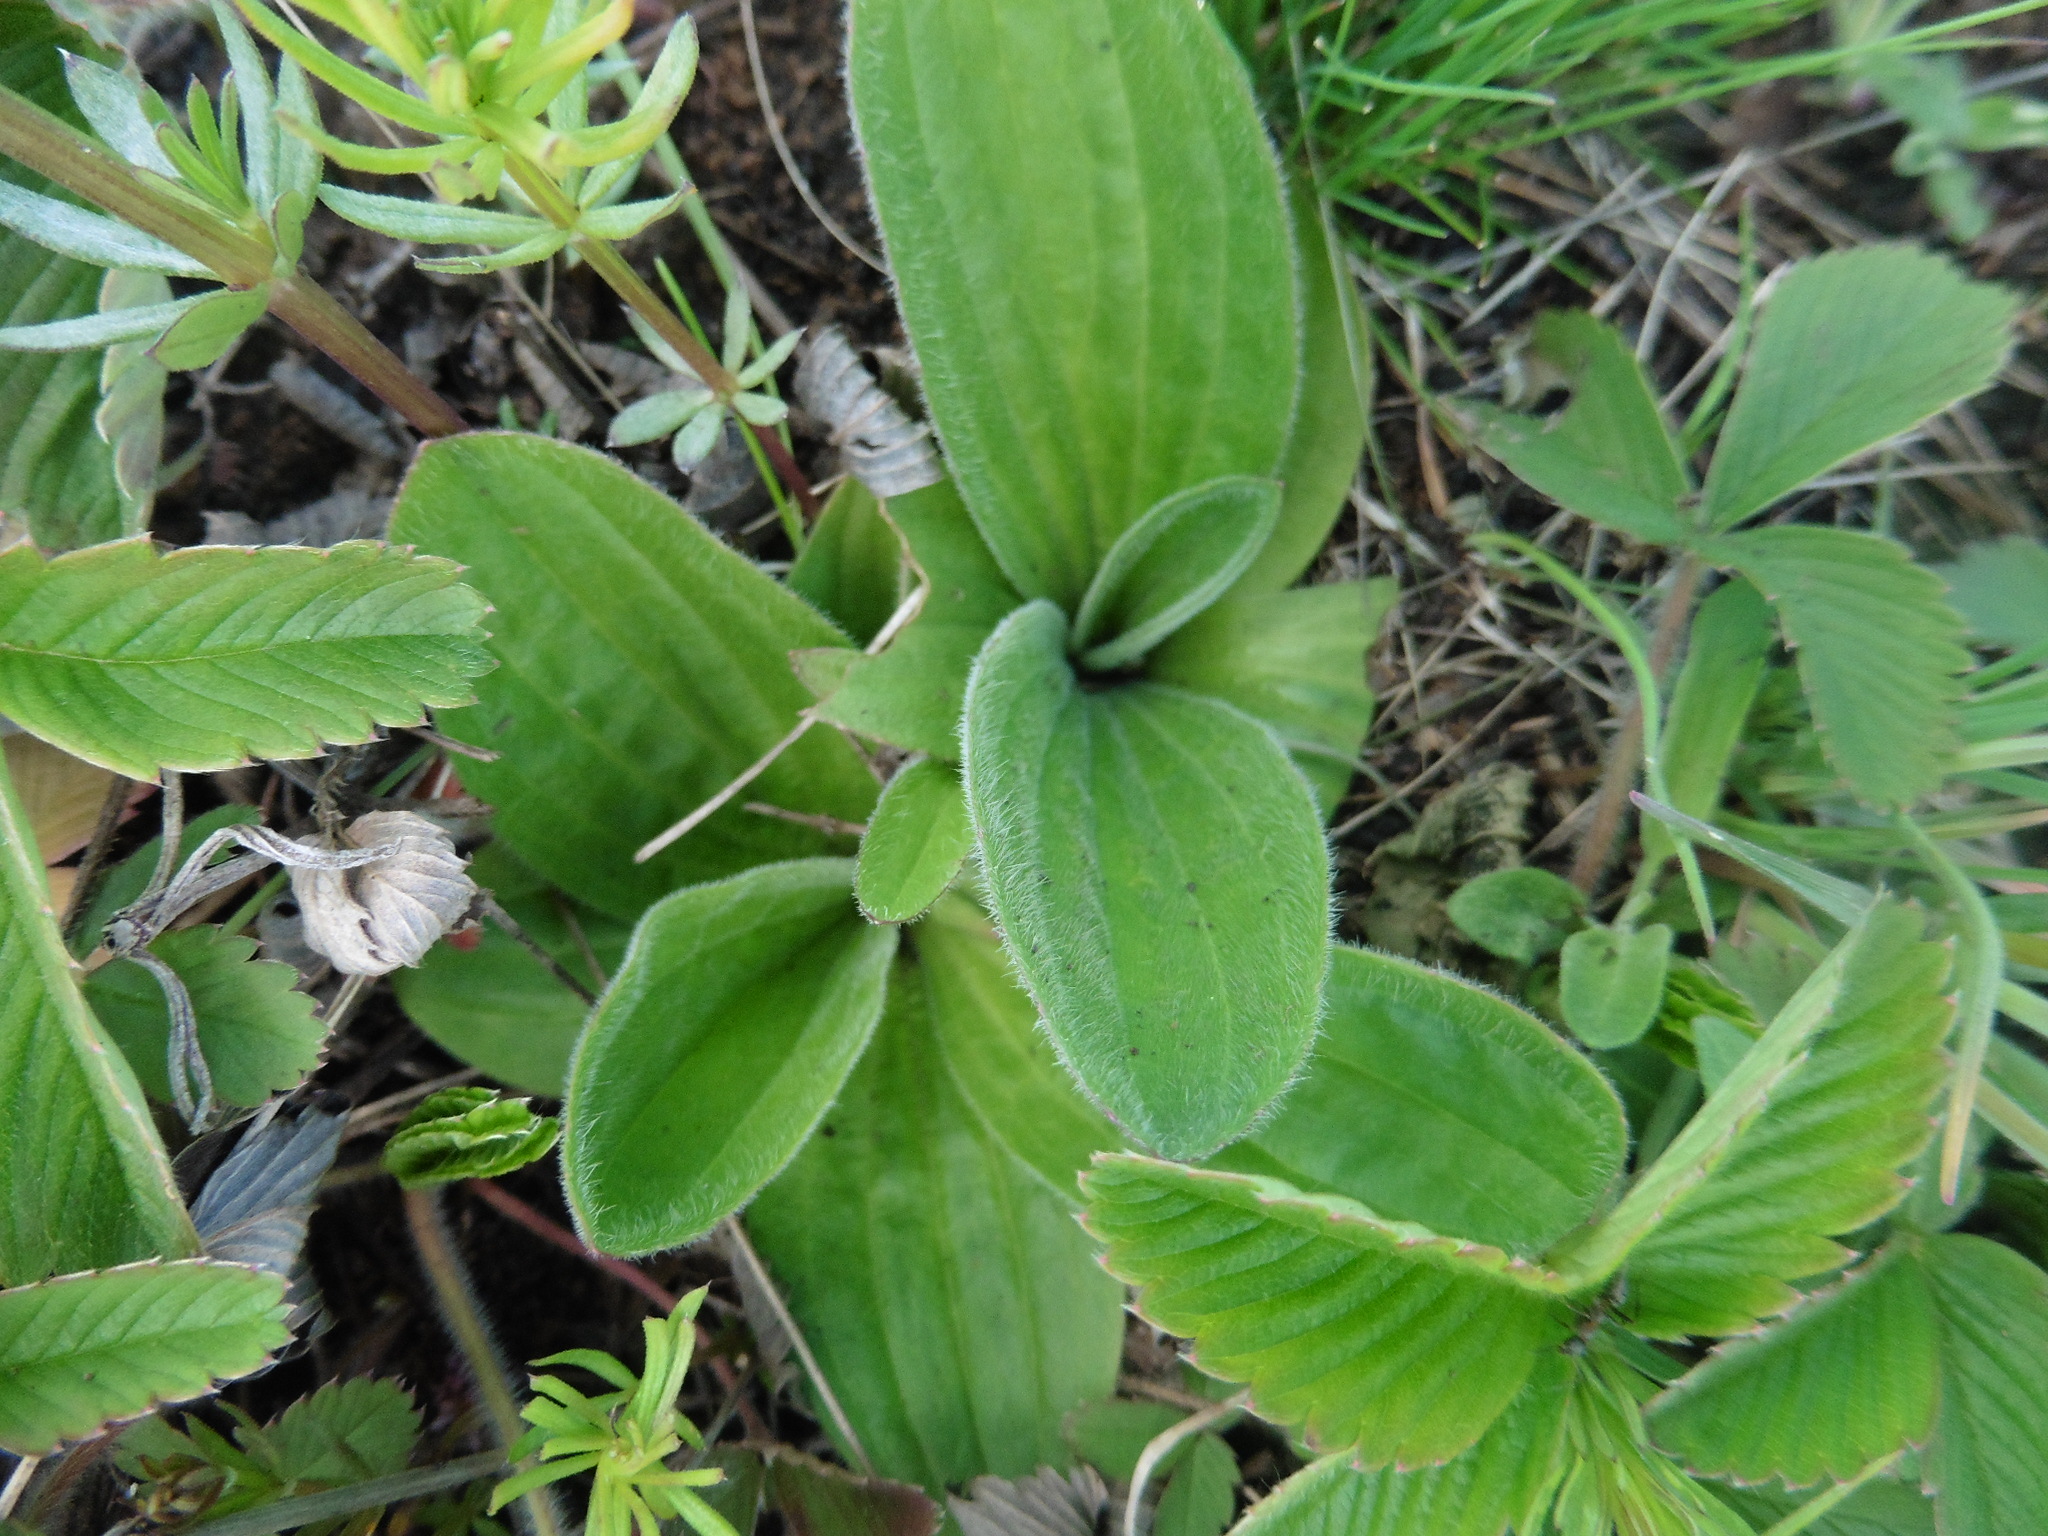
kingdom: Plantae
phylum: Tracheophyta
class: Magnoliopsida
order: Lamiales
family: Plantaginaceae
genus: Plantago
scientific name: Plantago media
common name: Hoary plantain
